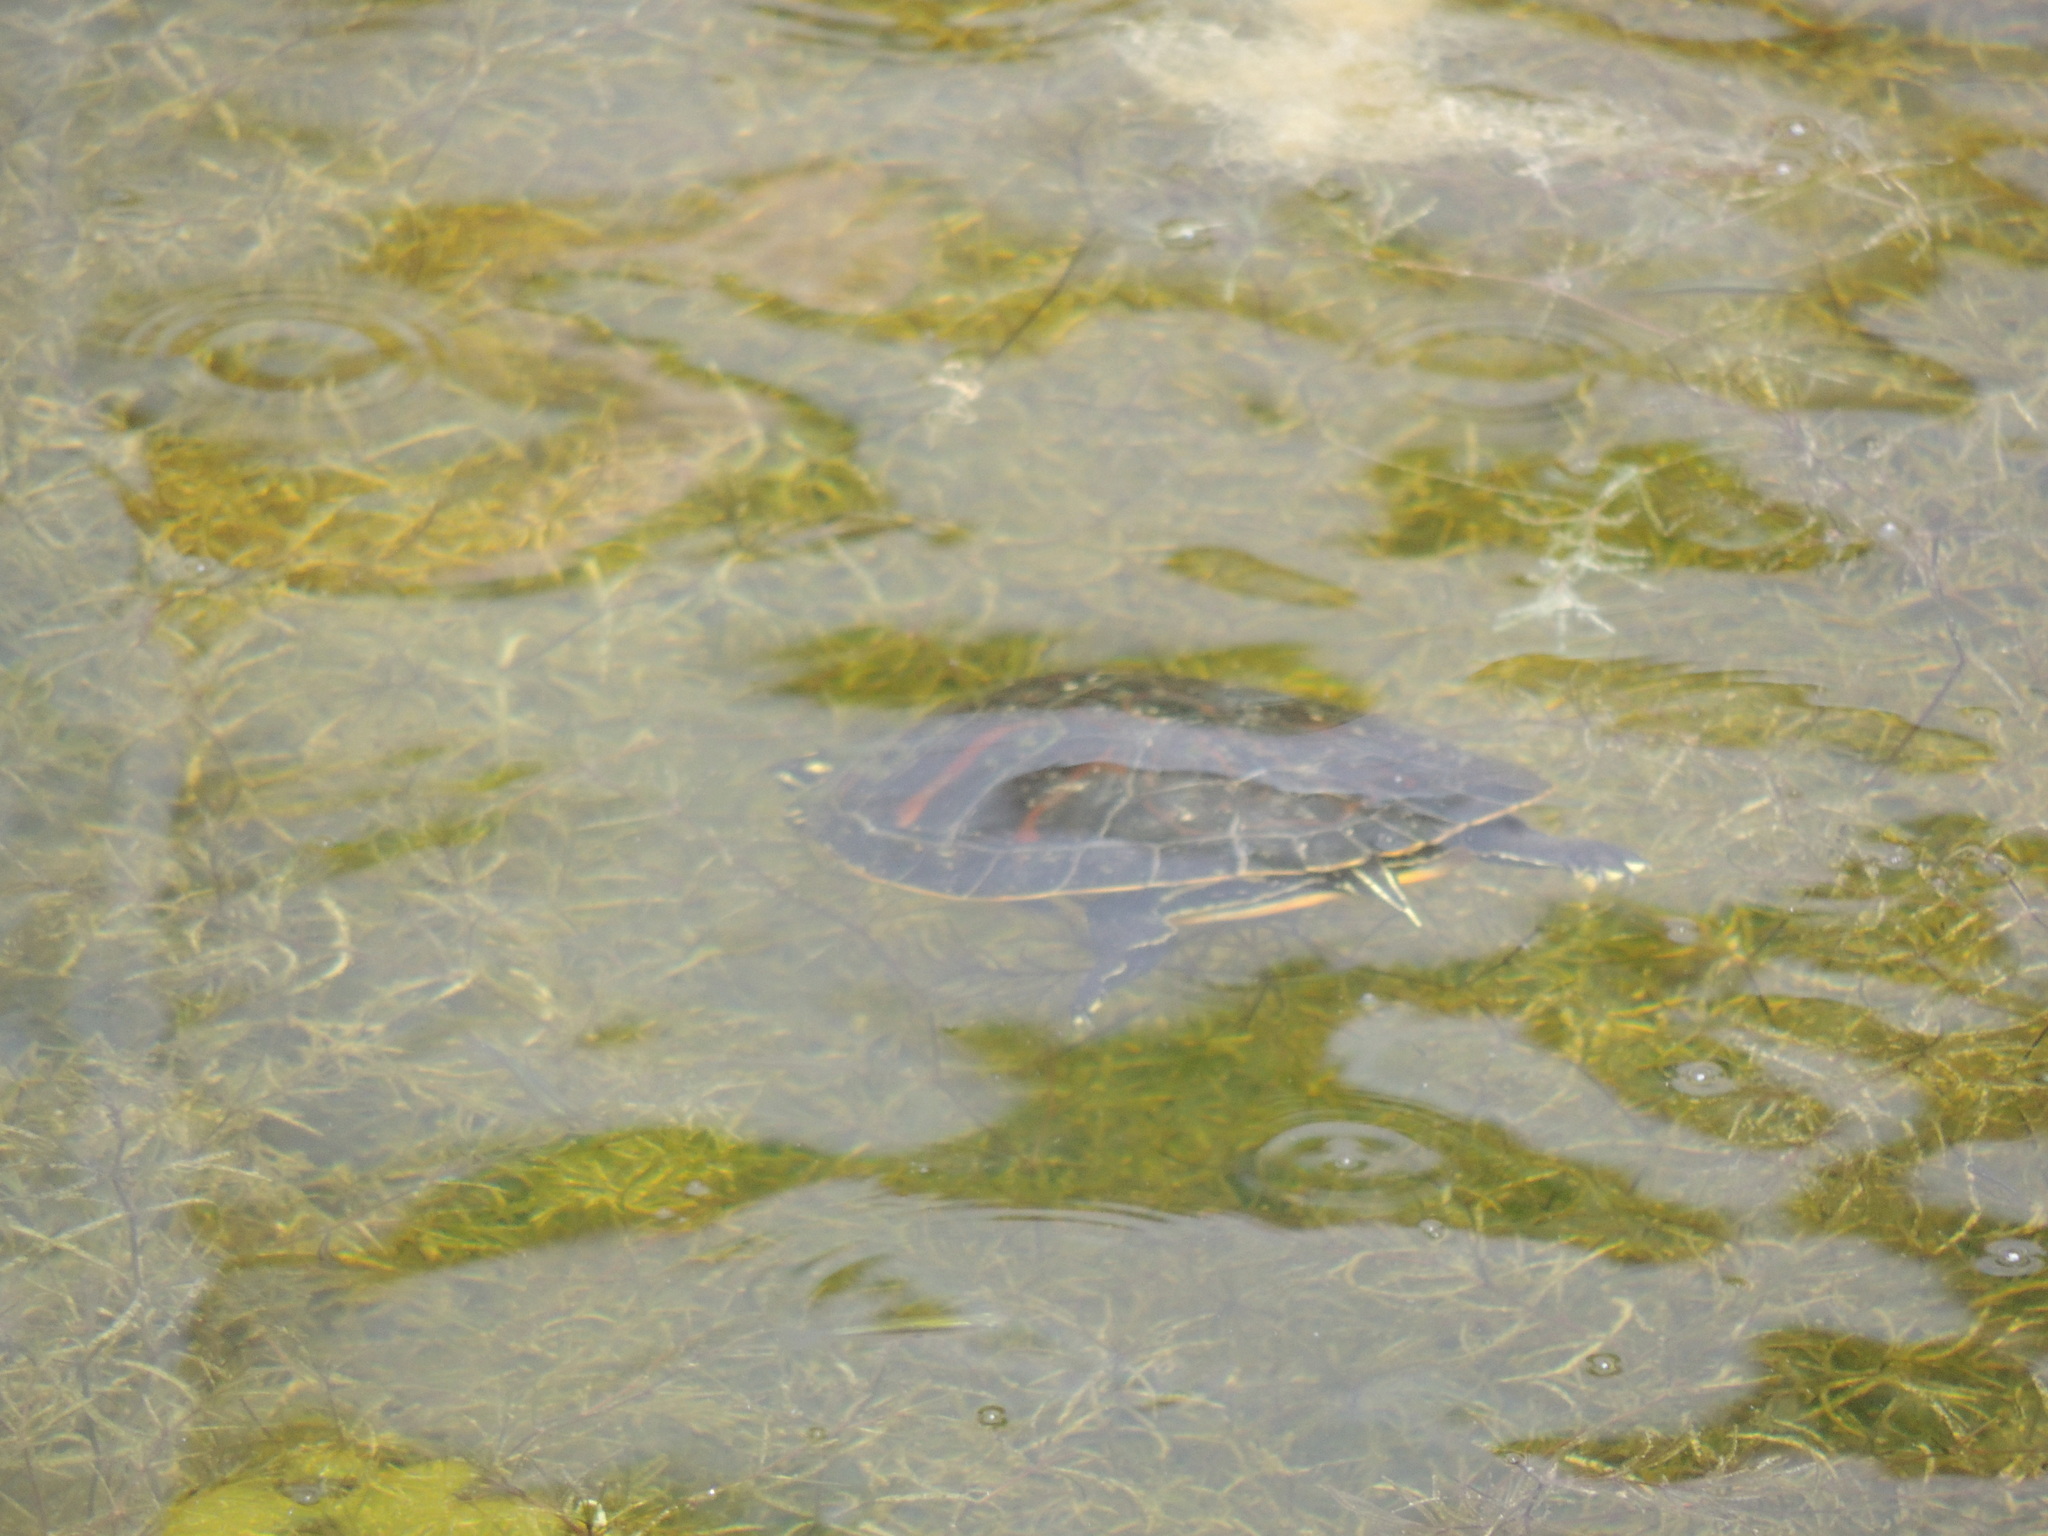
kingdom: Animalia
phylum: Chordata
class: Testudines
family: Emydidae
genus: Pseudemys
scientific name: Pseudemys nelsoni
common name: Florida red-bellied turtle
